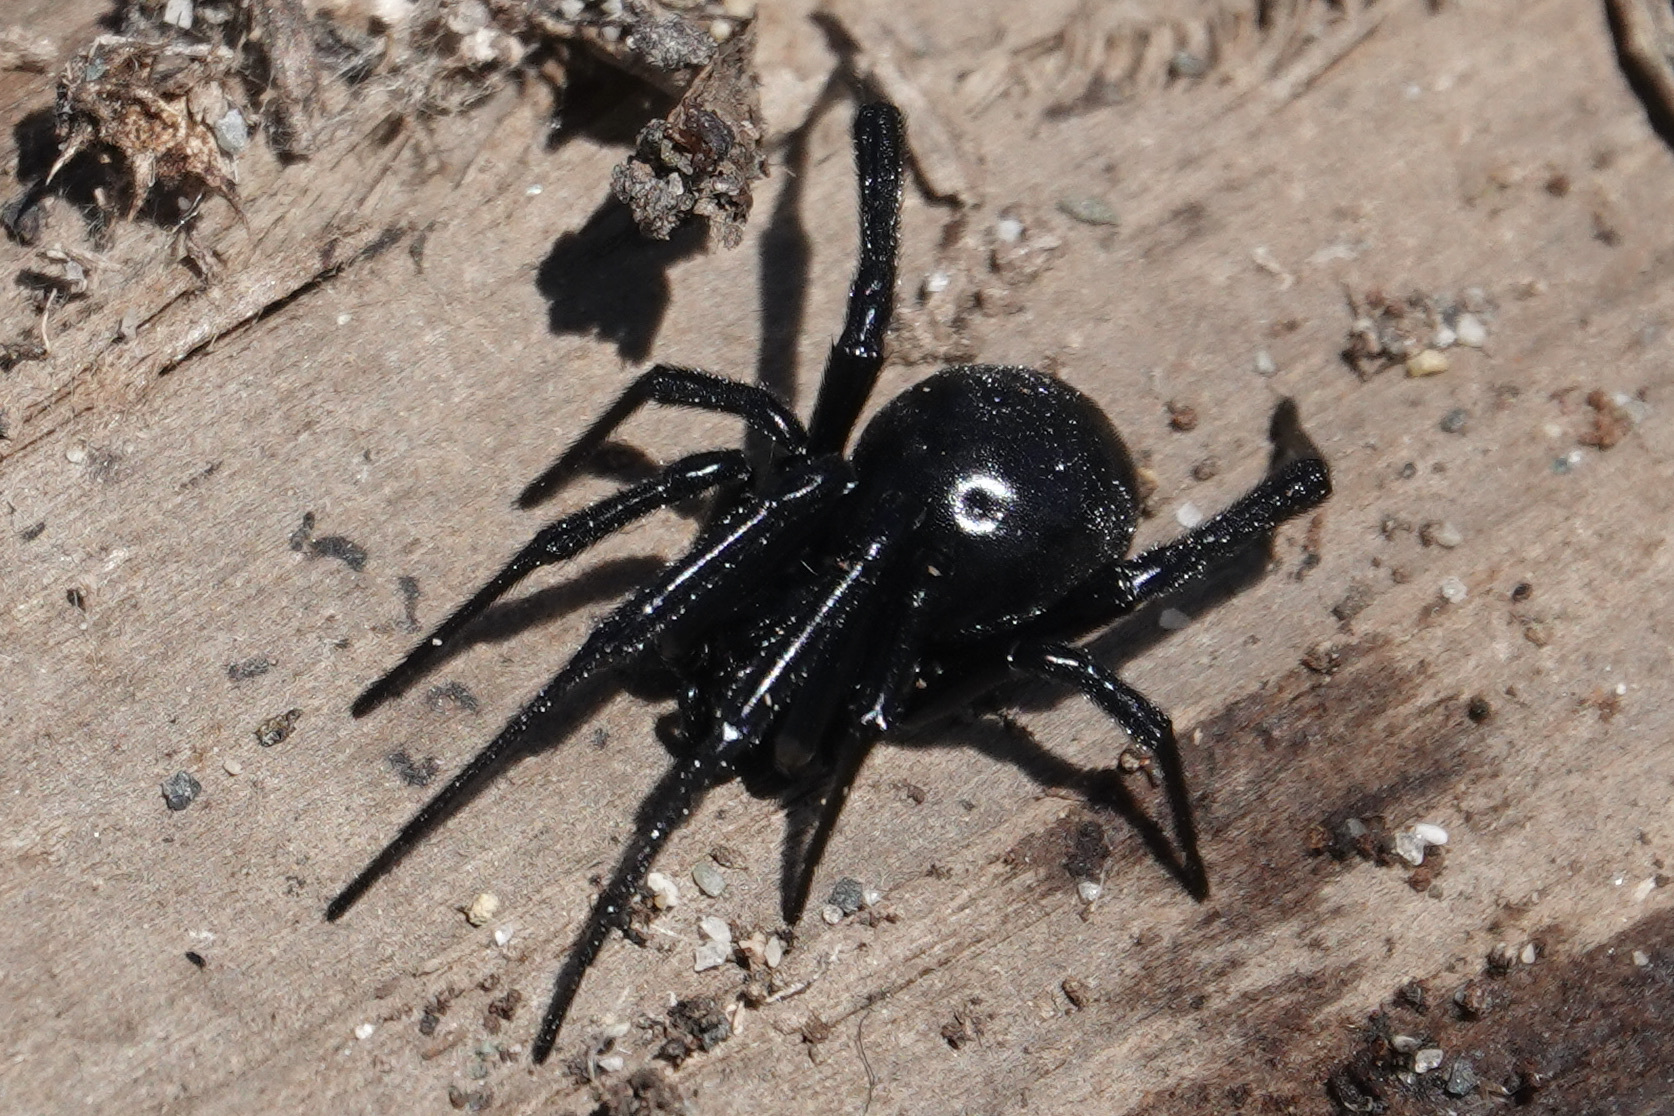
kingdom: Animalia
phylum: Arthropoda
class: Arachnida
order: Araneae
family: Theridiidae
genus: Latrodectus
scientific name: Latrodectus hesperus
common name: Western black widow
